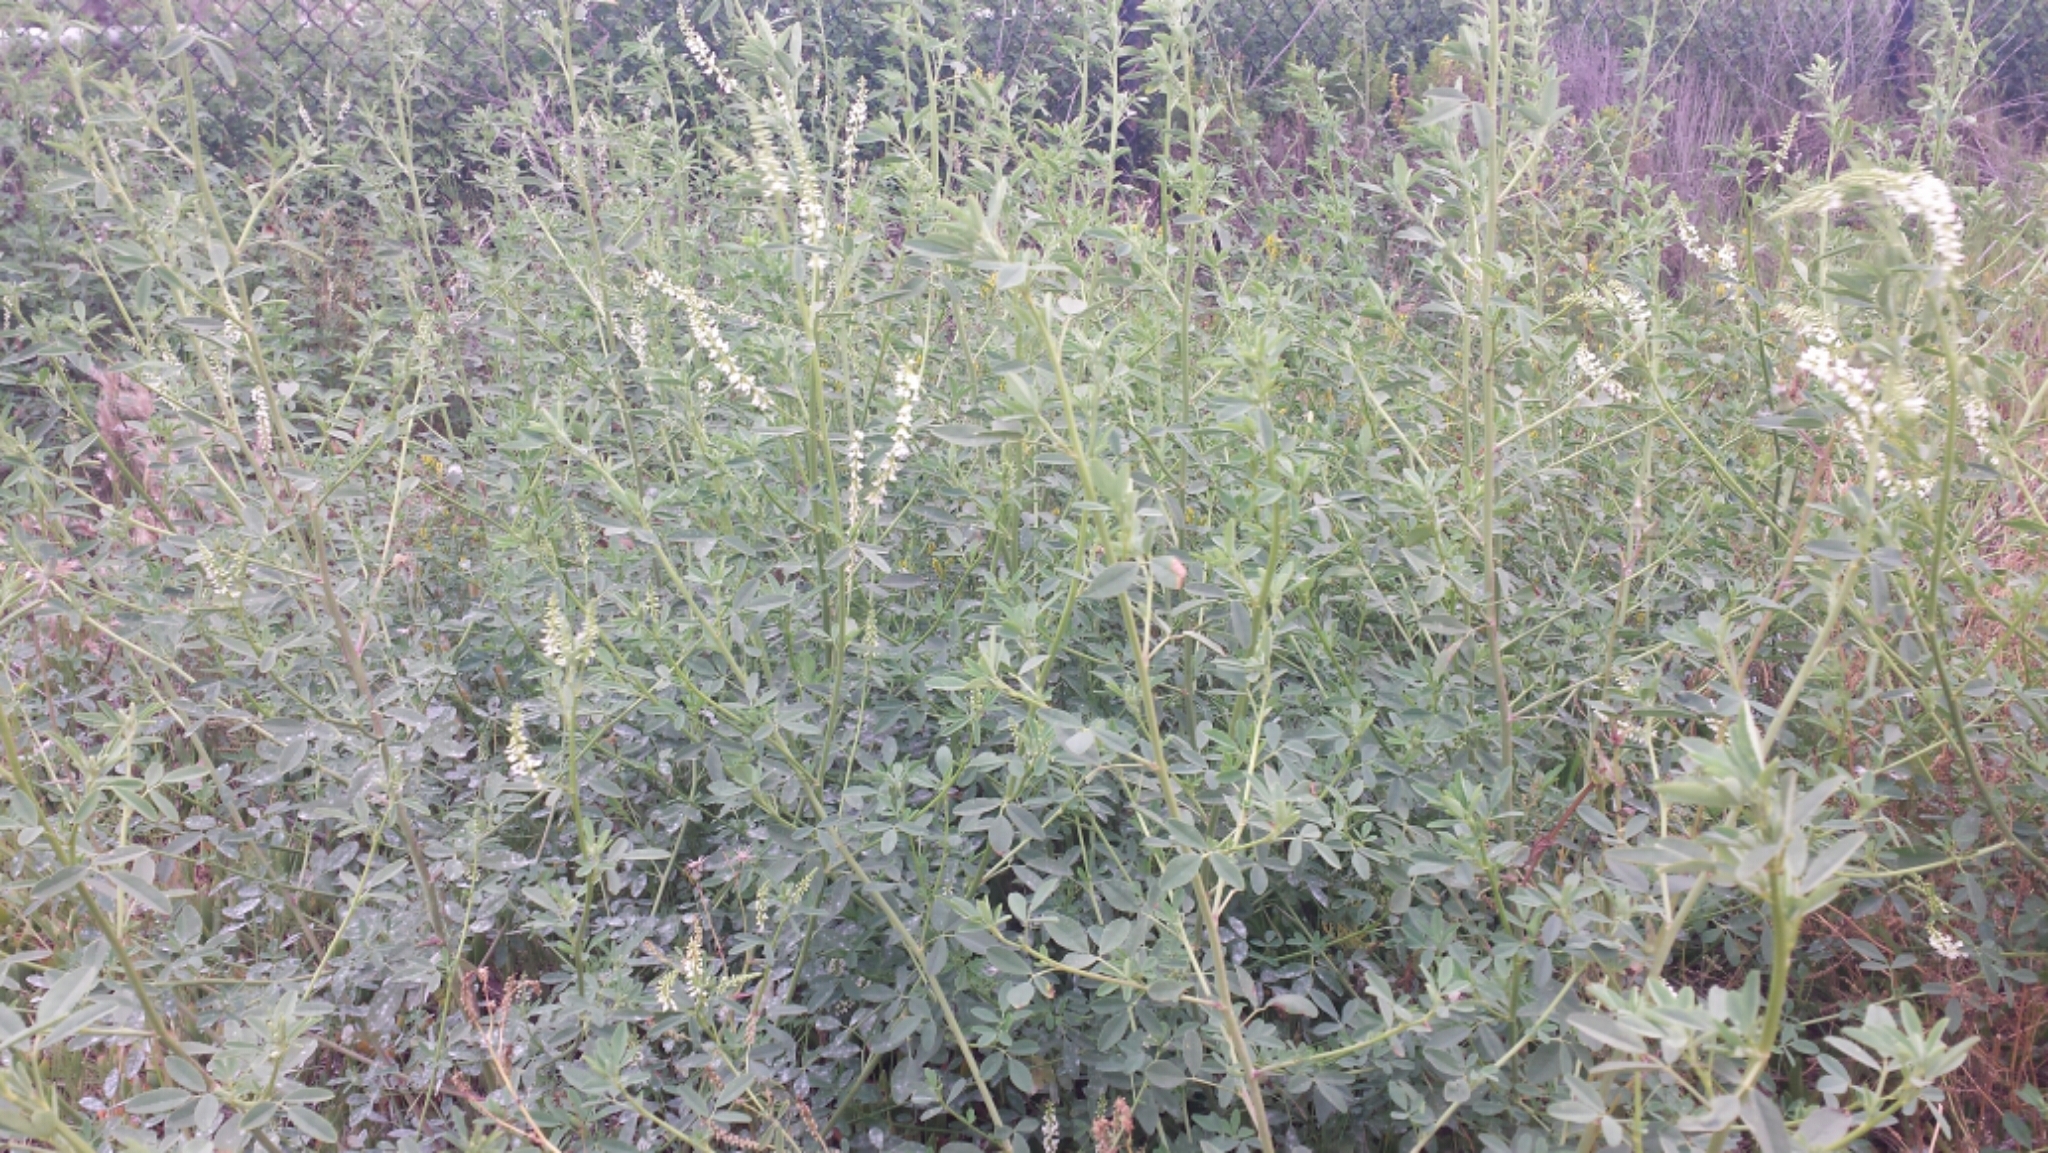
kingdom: Plantae
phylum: Tracheophyta
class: Magnoliopsida
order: Fabales
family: Fabaceae
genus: Melilotus
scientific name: Melilotus albus
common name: White melilot
